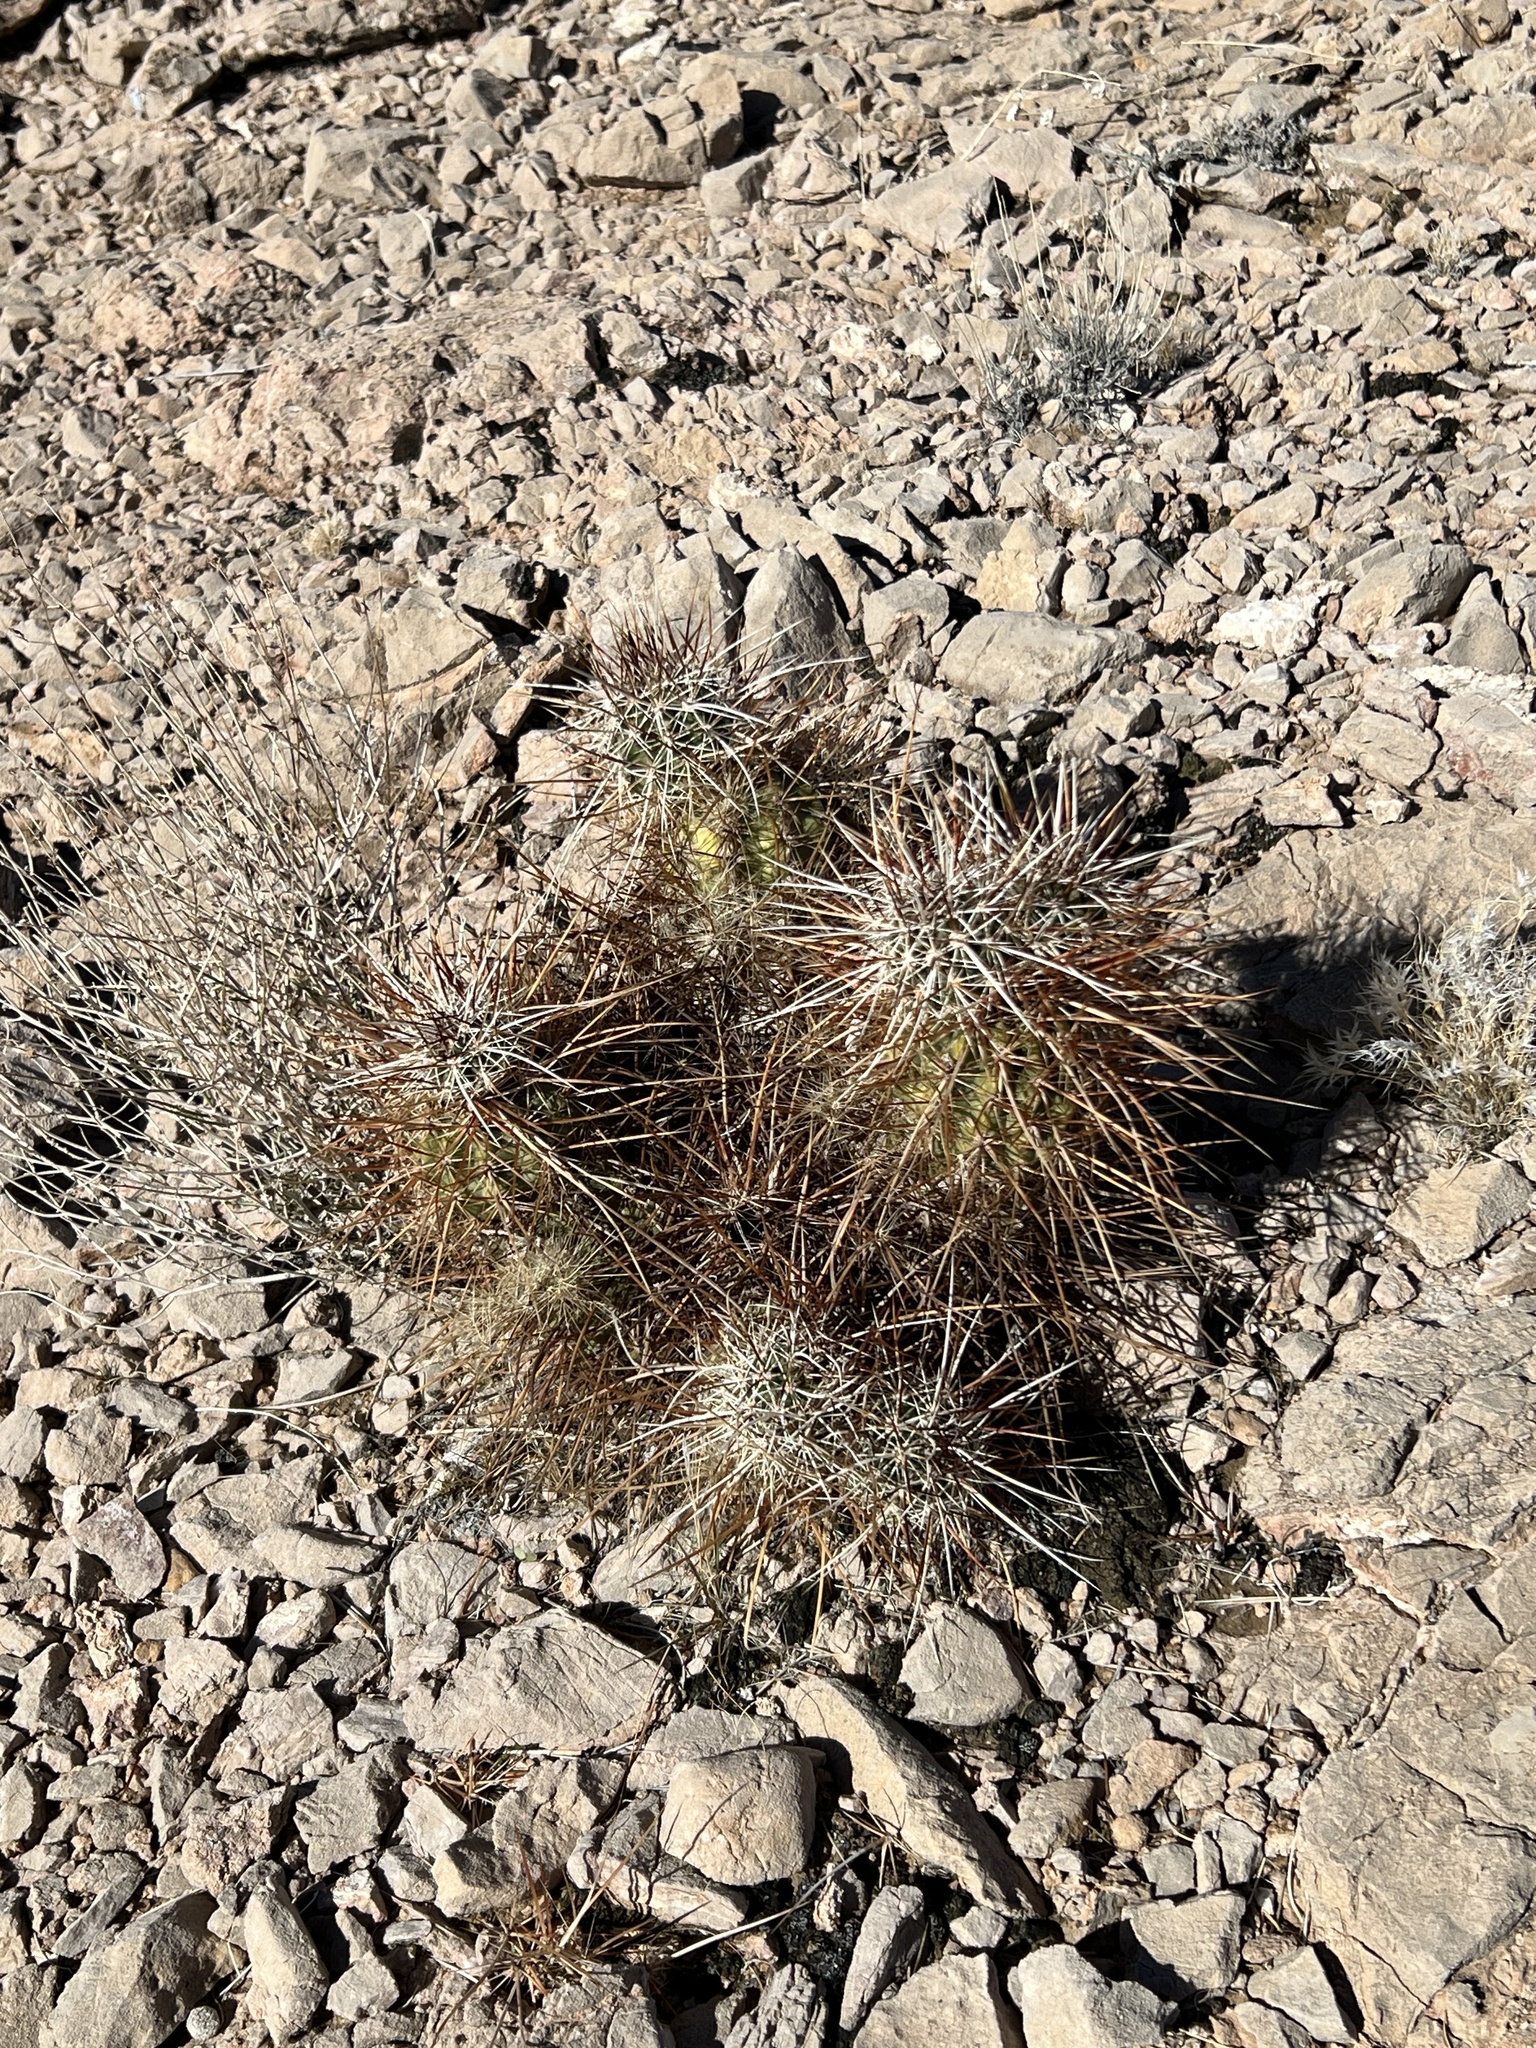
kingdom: Plantae
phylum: Tracheophyta
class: Magnoliopsida
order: Caryophyllales
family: Cactaceae
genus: Echinocereus
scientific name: Echinocereus engelmannii
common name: Engelmann's hedgehog cactus
